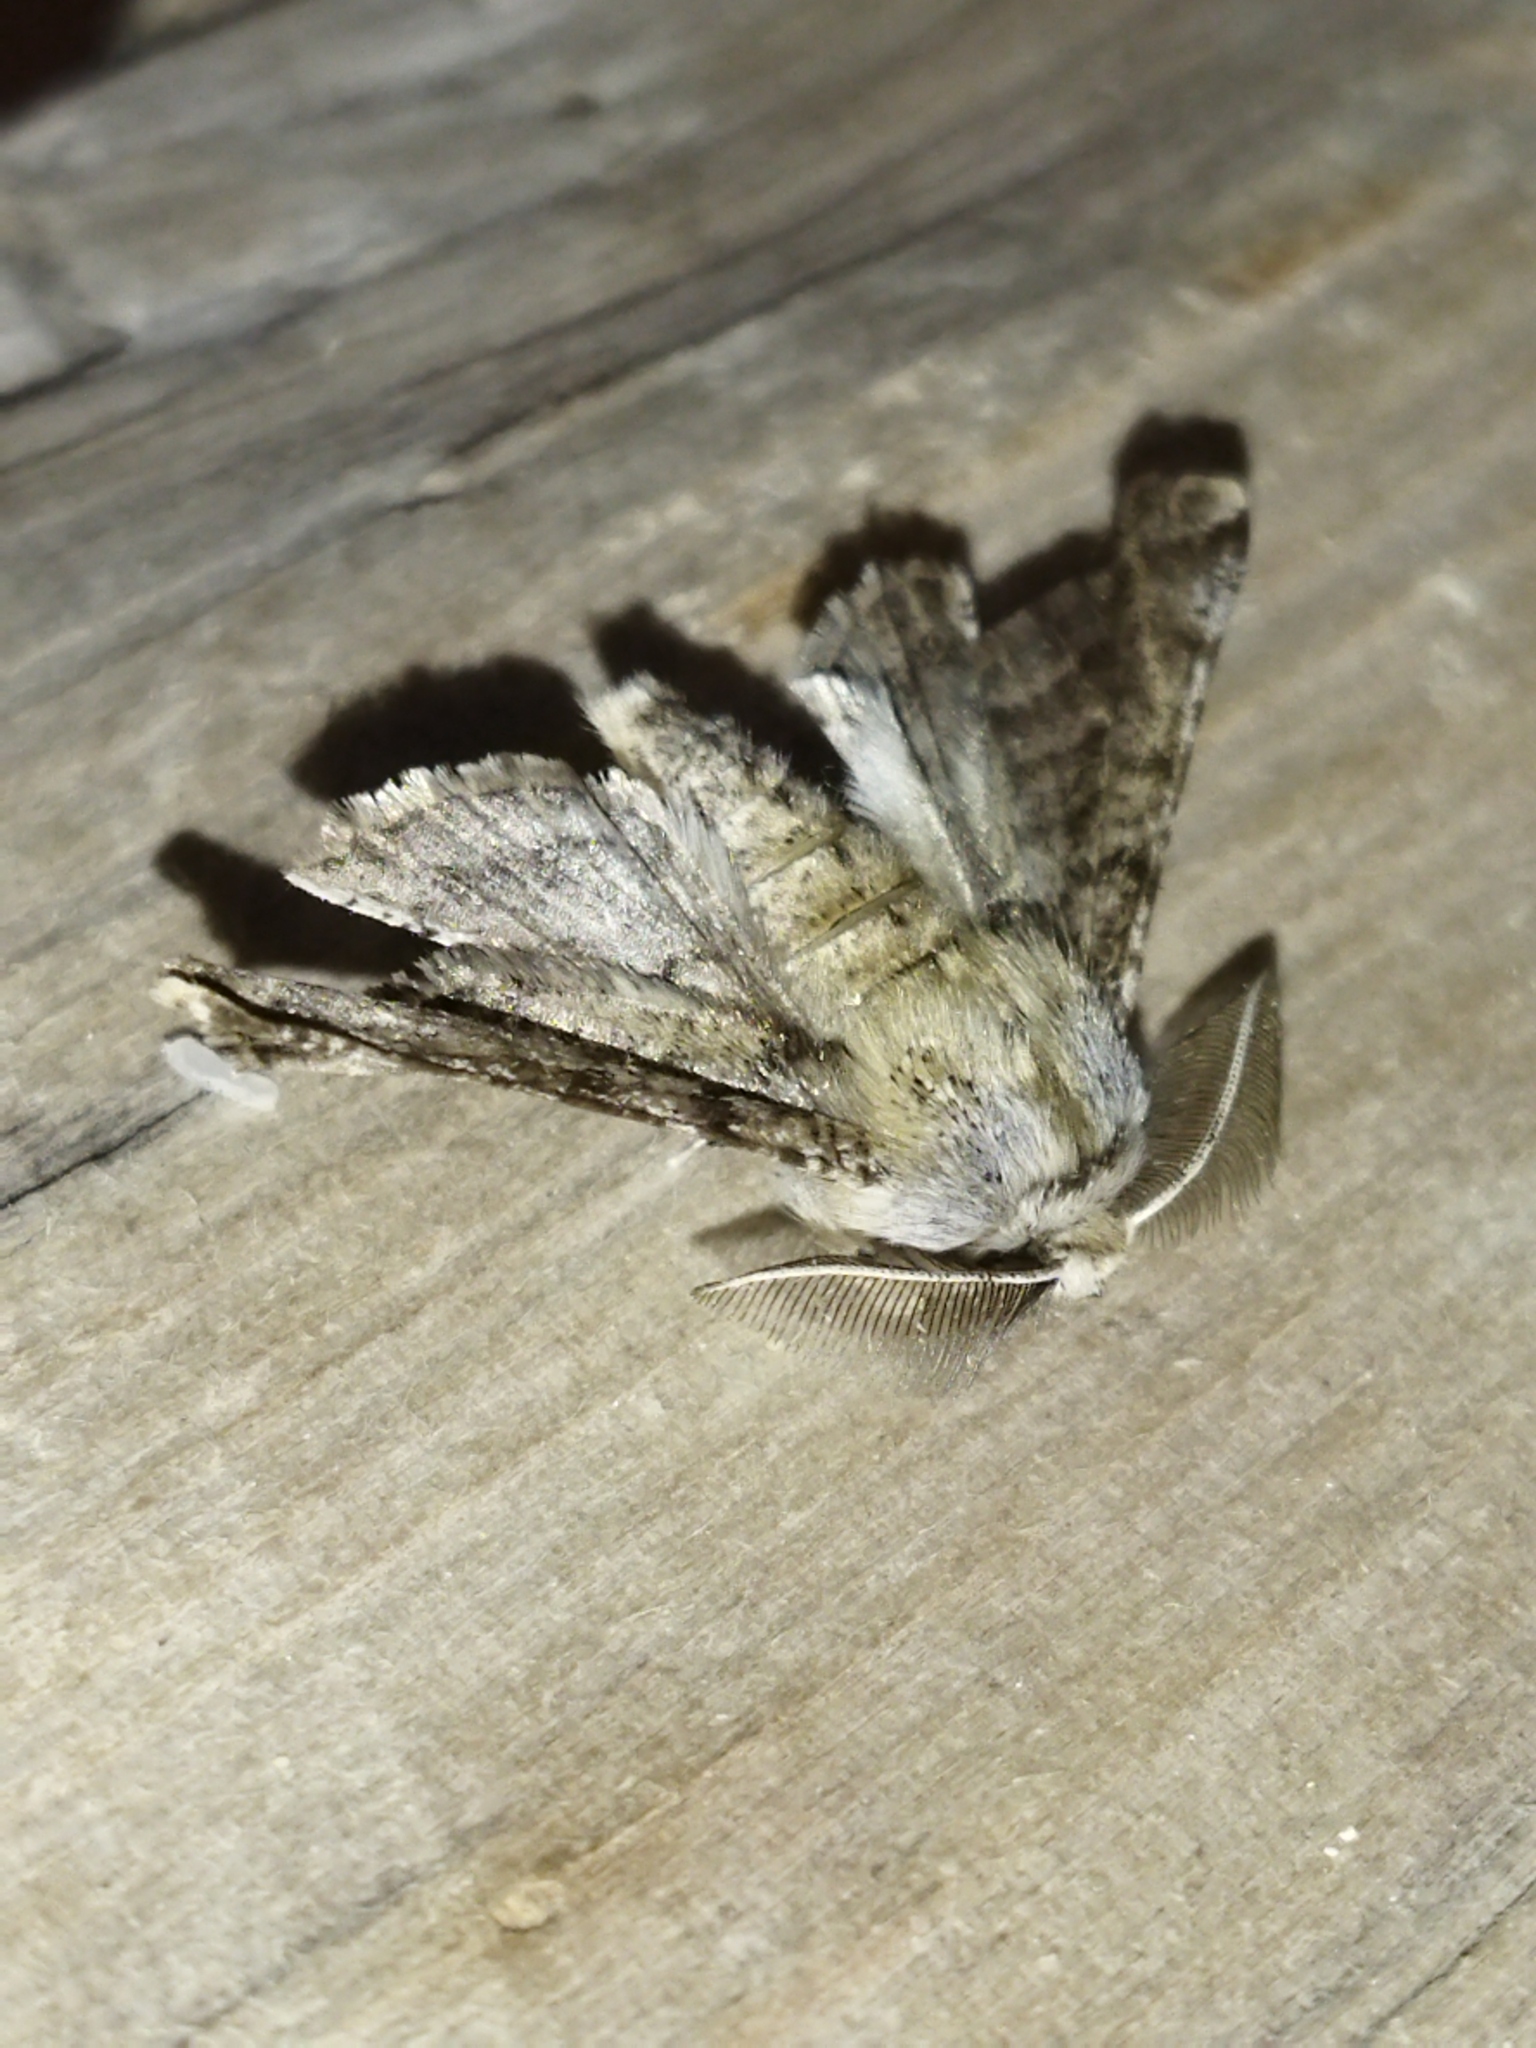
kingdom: Animalia
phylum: Arthropoda
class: Insecta
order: Lepidoptera
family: Geometridae
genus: Apochima
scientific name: Apochima flabellaria
